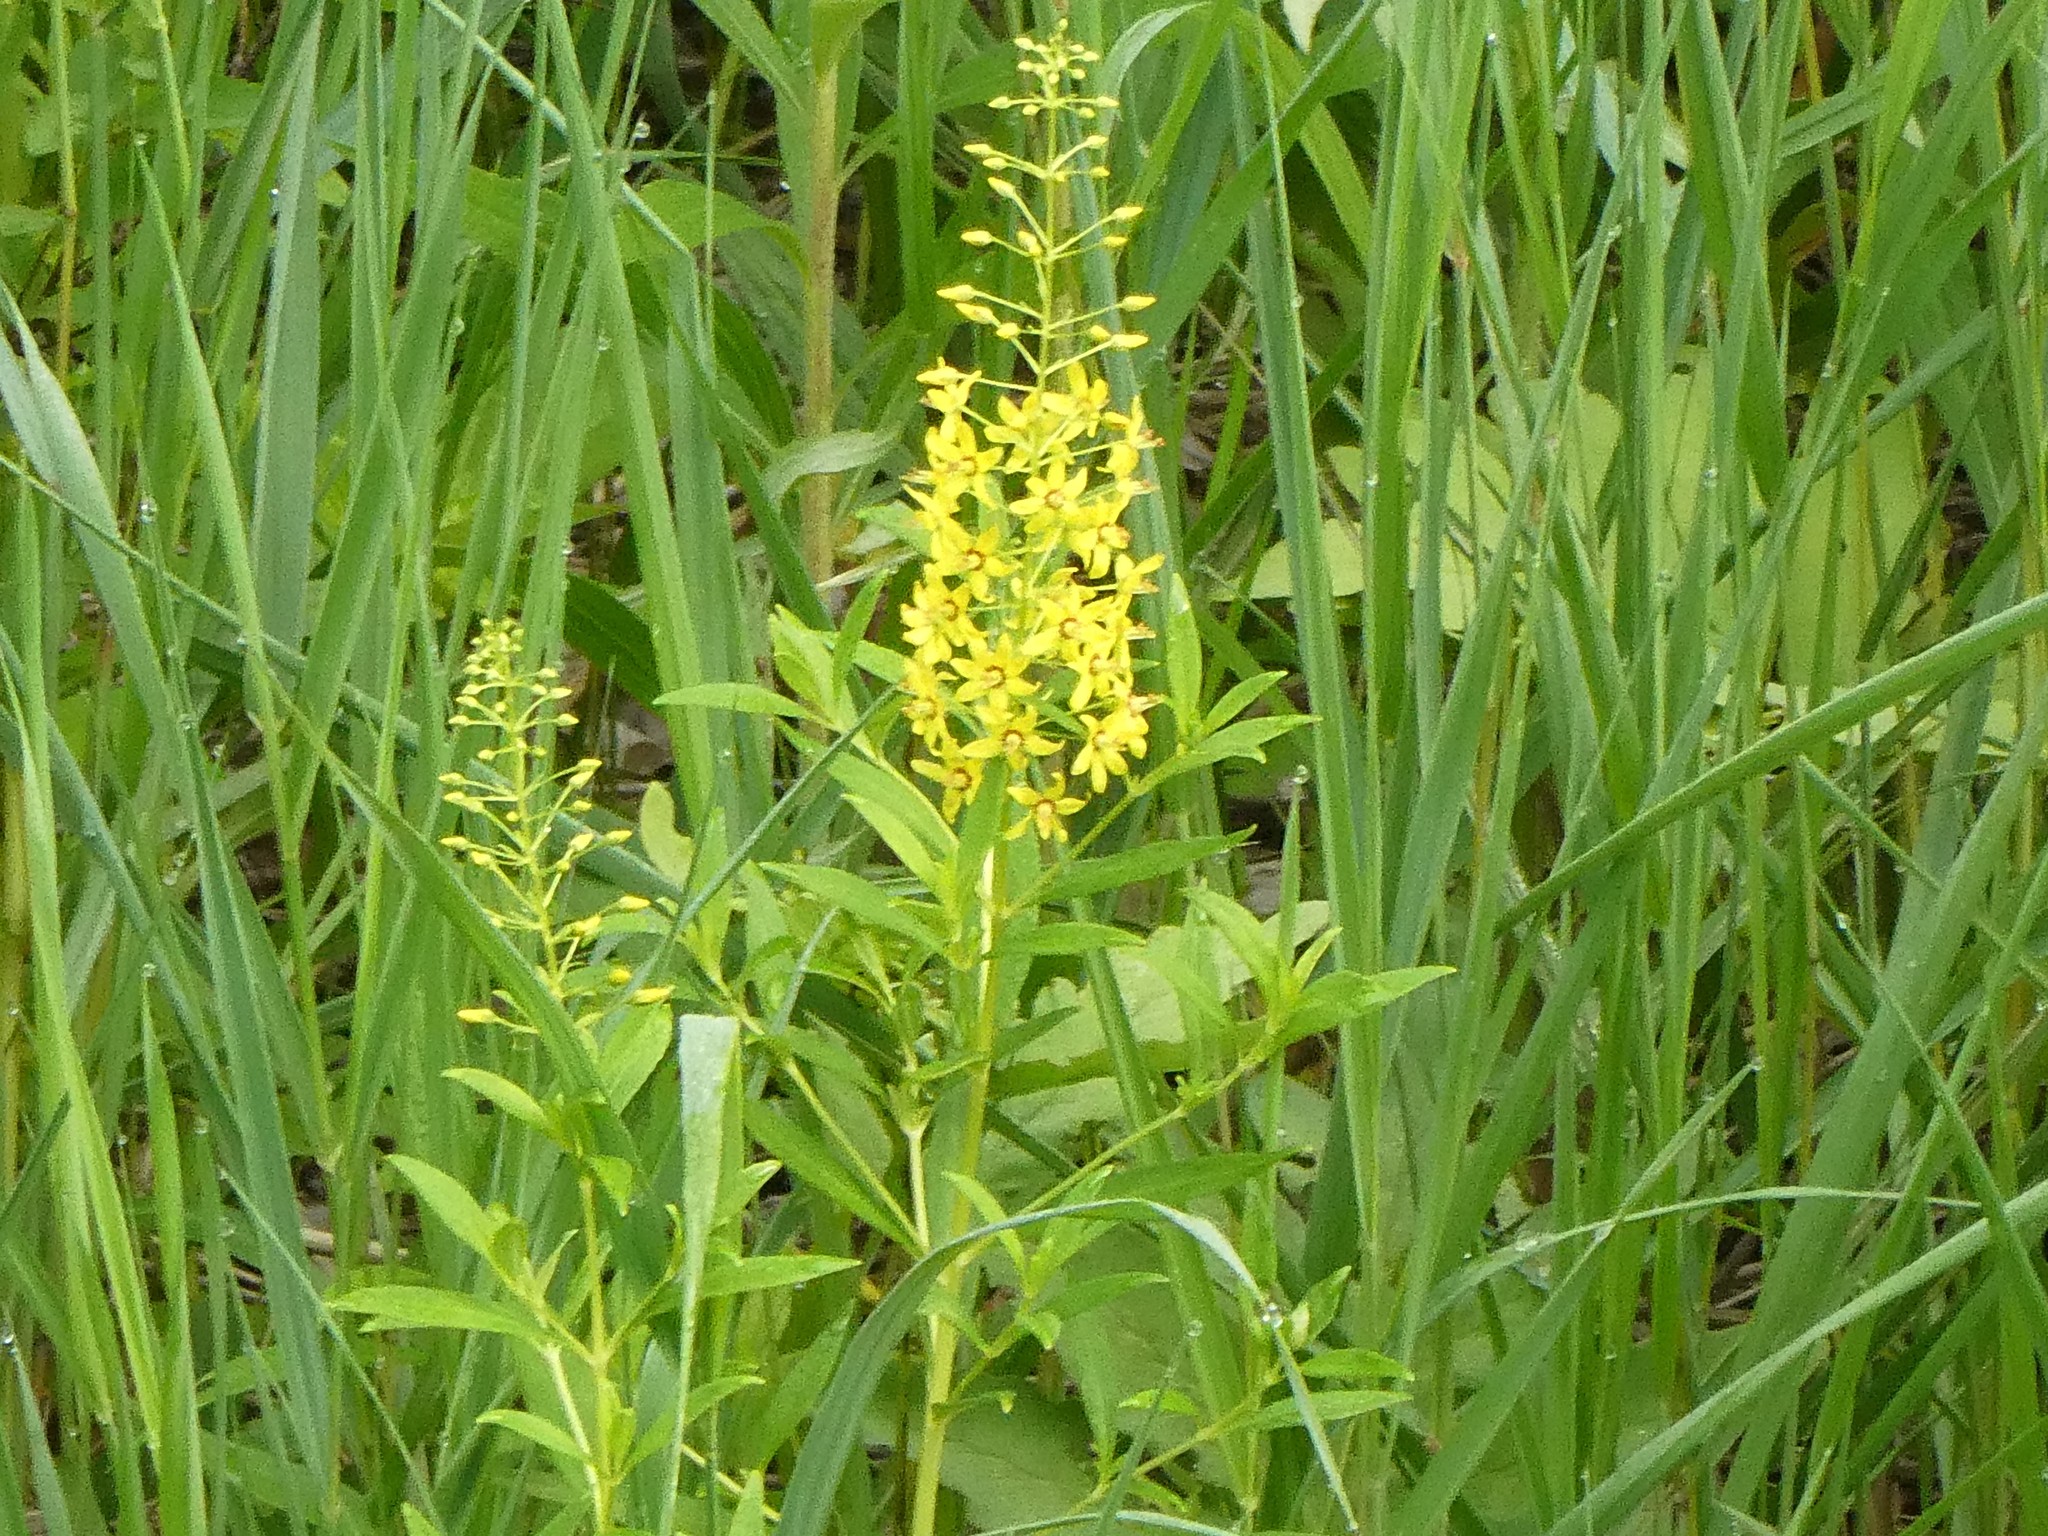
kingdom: Plantae
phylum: Tracheophyta
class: Magnoliopsida
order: Ericales
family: Primulaceae
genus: Lysimachia
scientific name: Lysimachia terrestris
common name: Lake loosestrife
